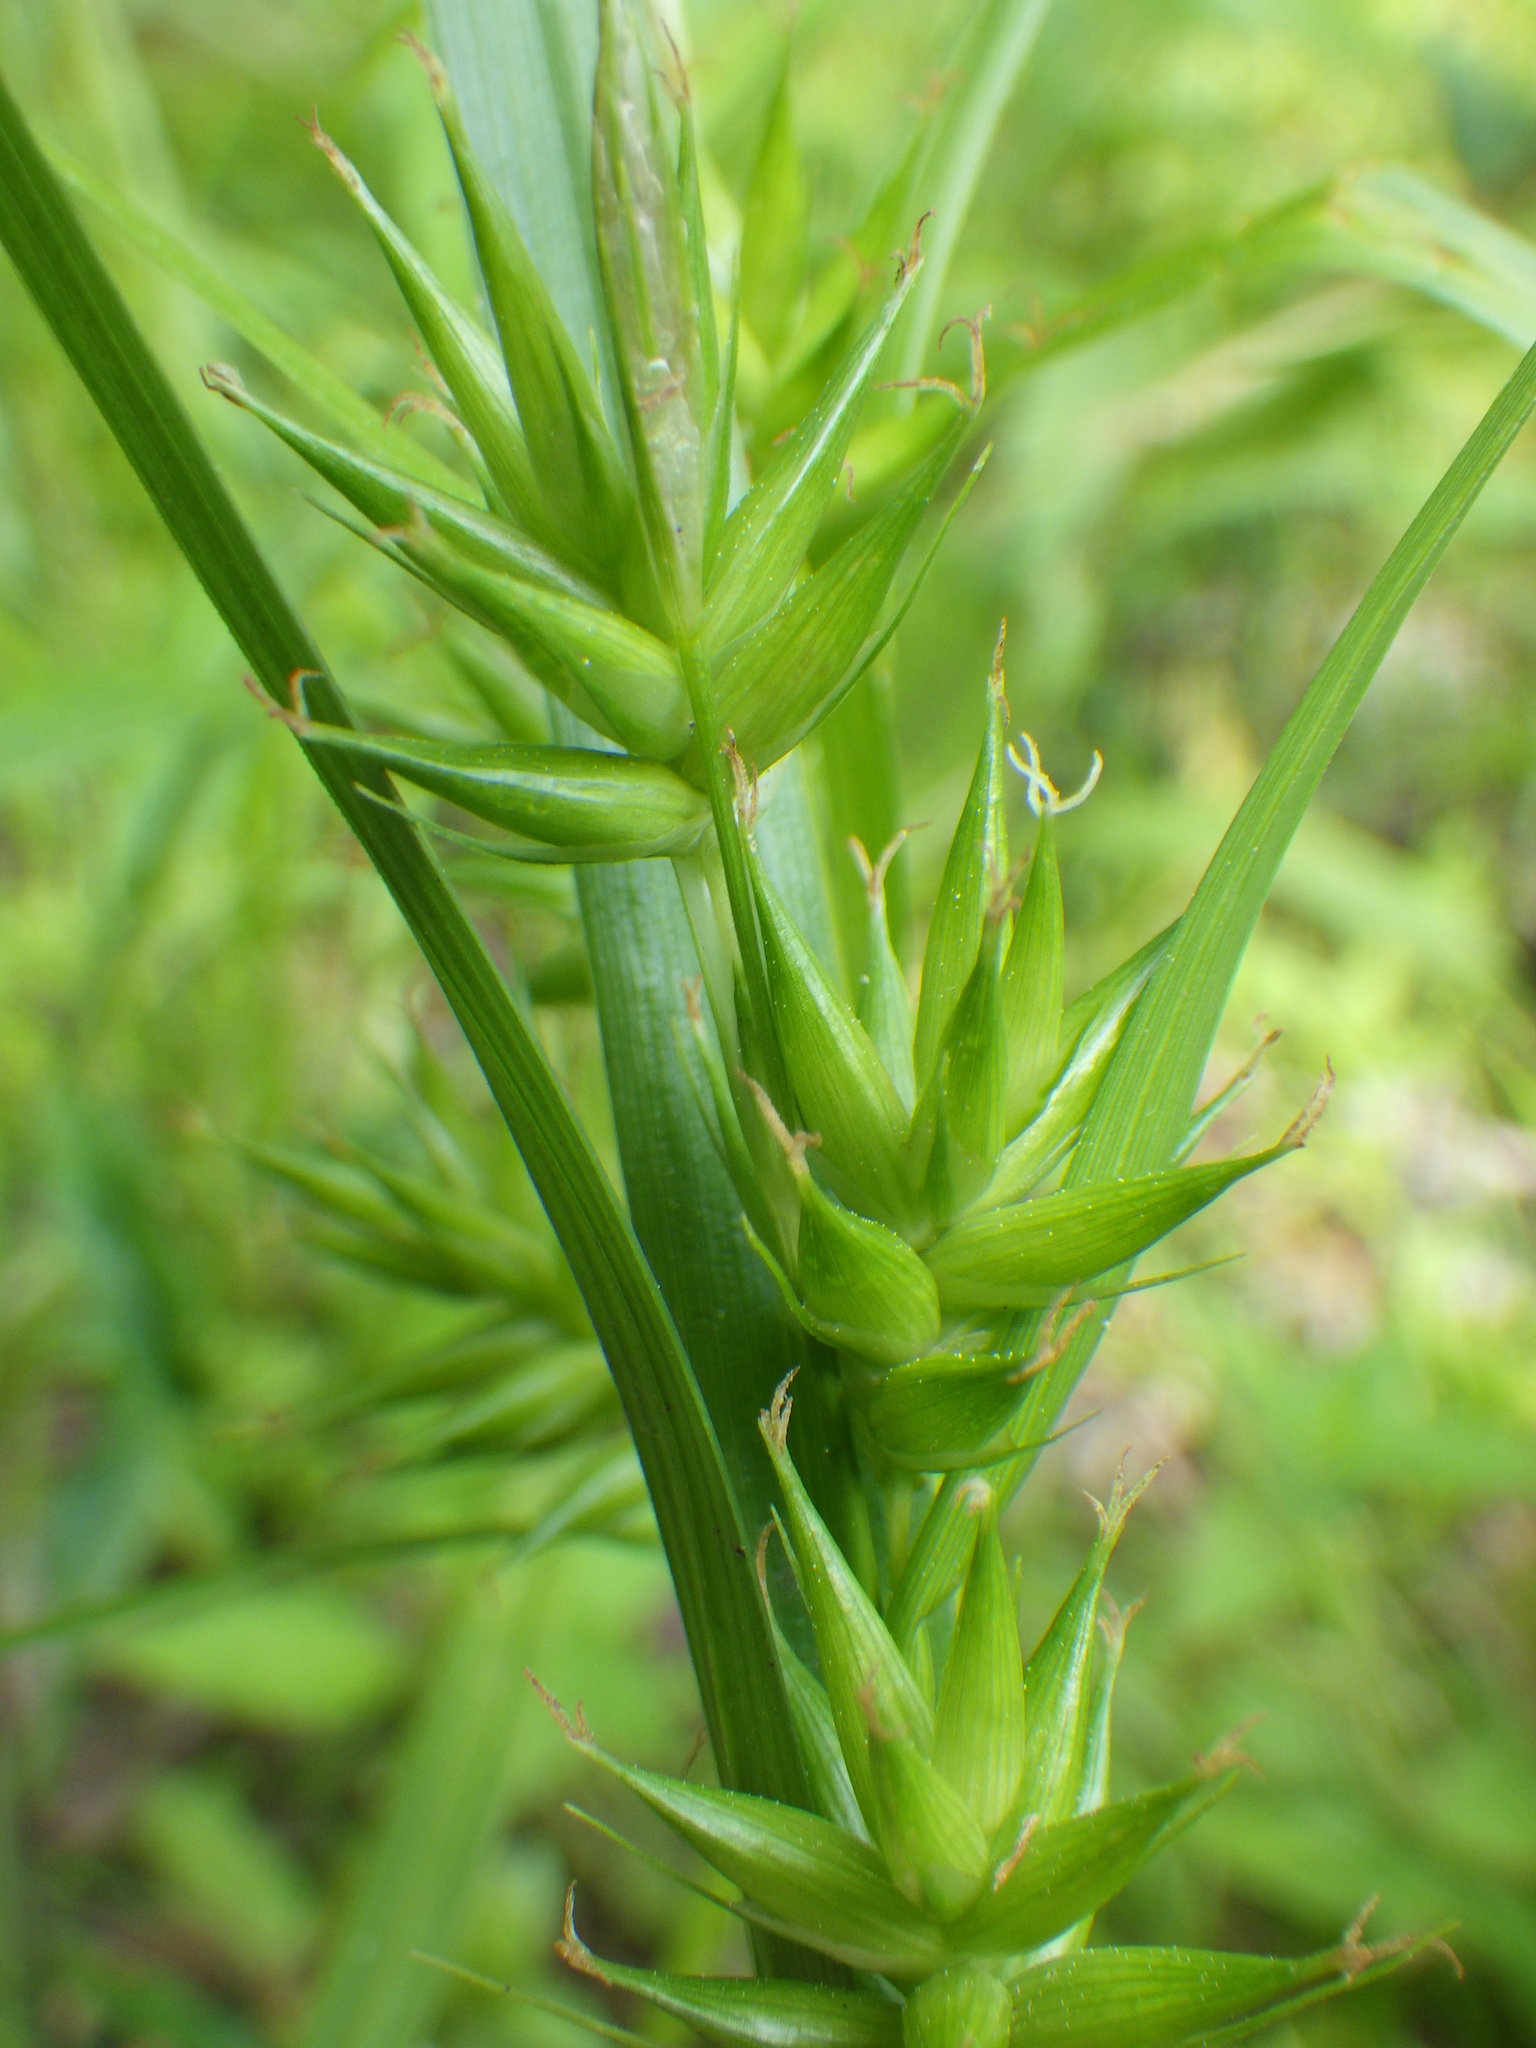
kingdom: Plantae
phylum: Tracheophyta
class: Liliopsida
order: Poales
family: Cyperaceae
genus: Carex
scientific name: Carex folliculata
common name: Northern long sedge
